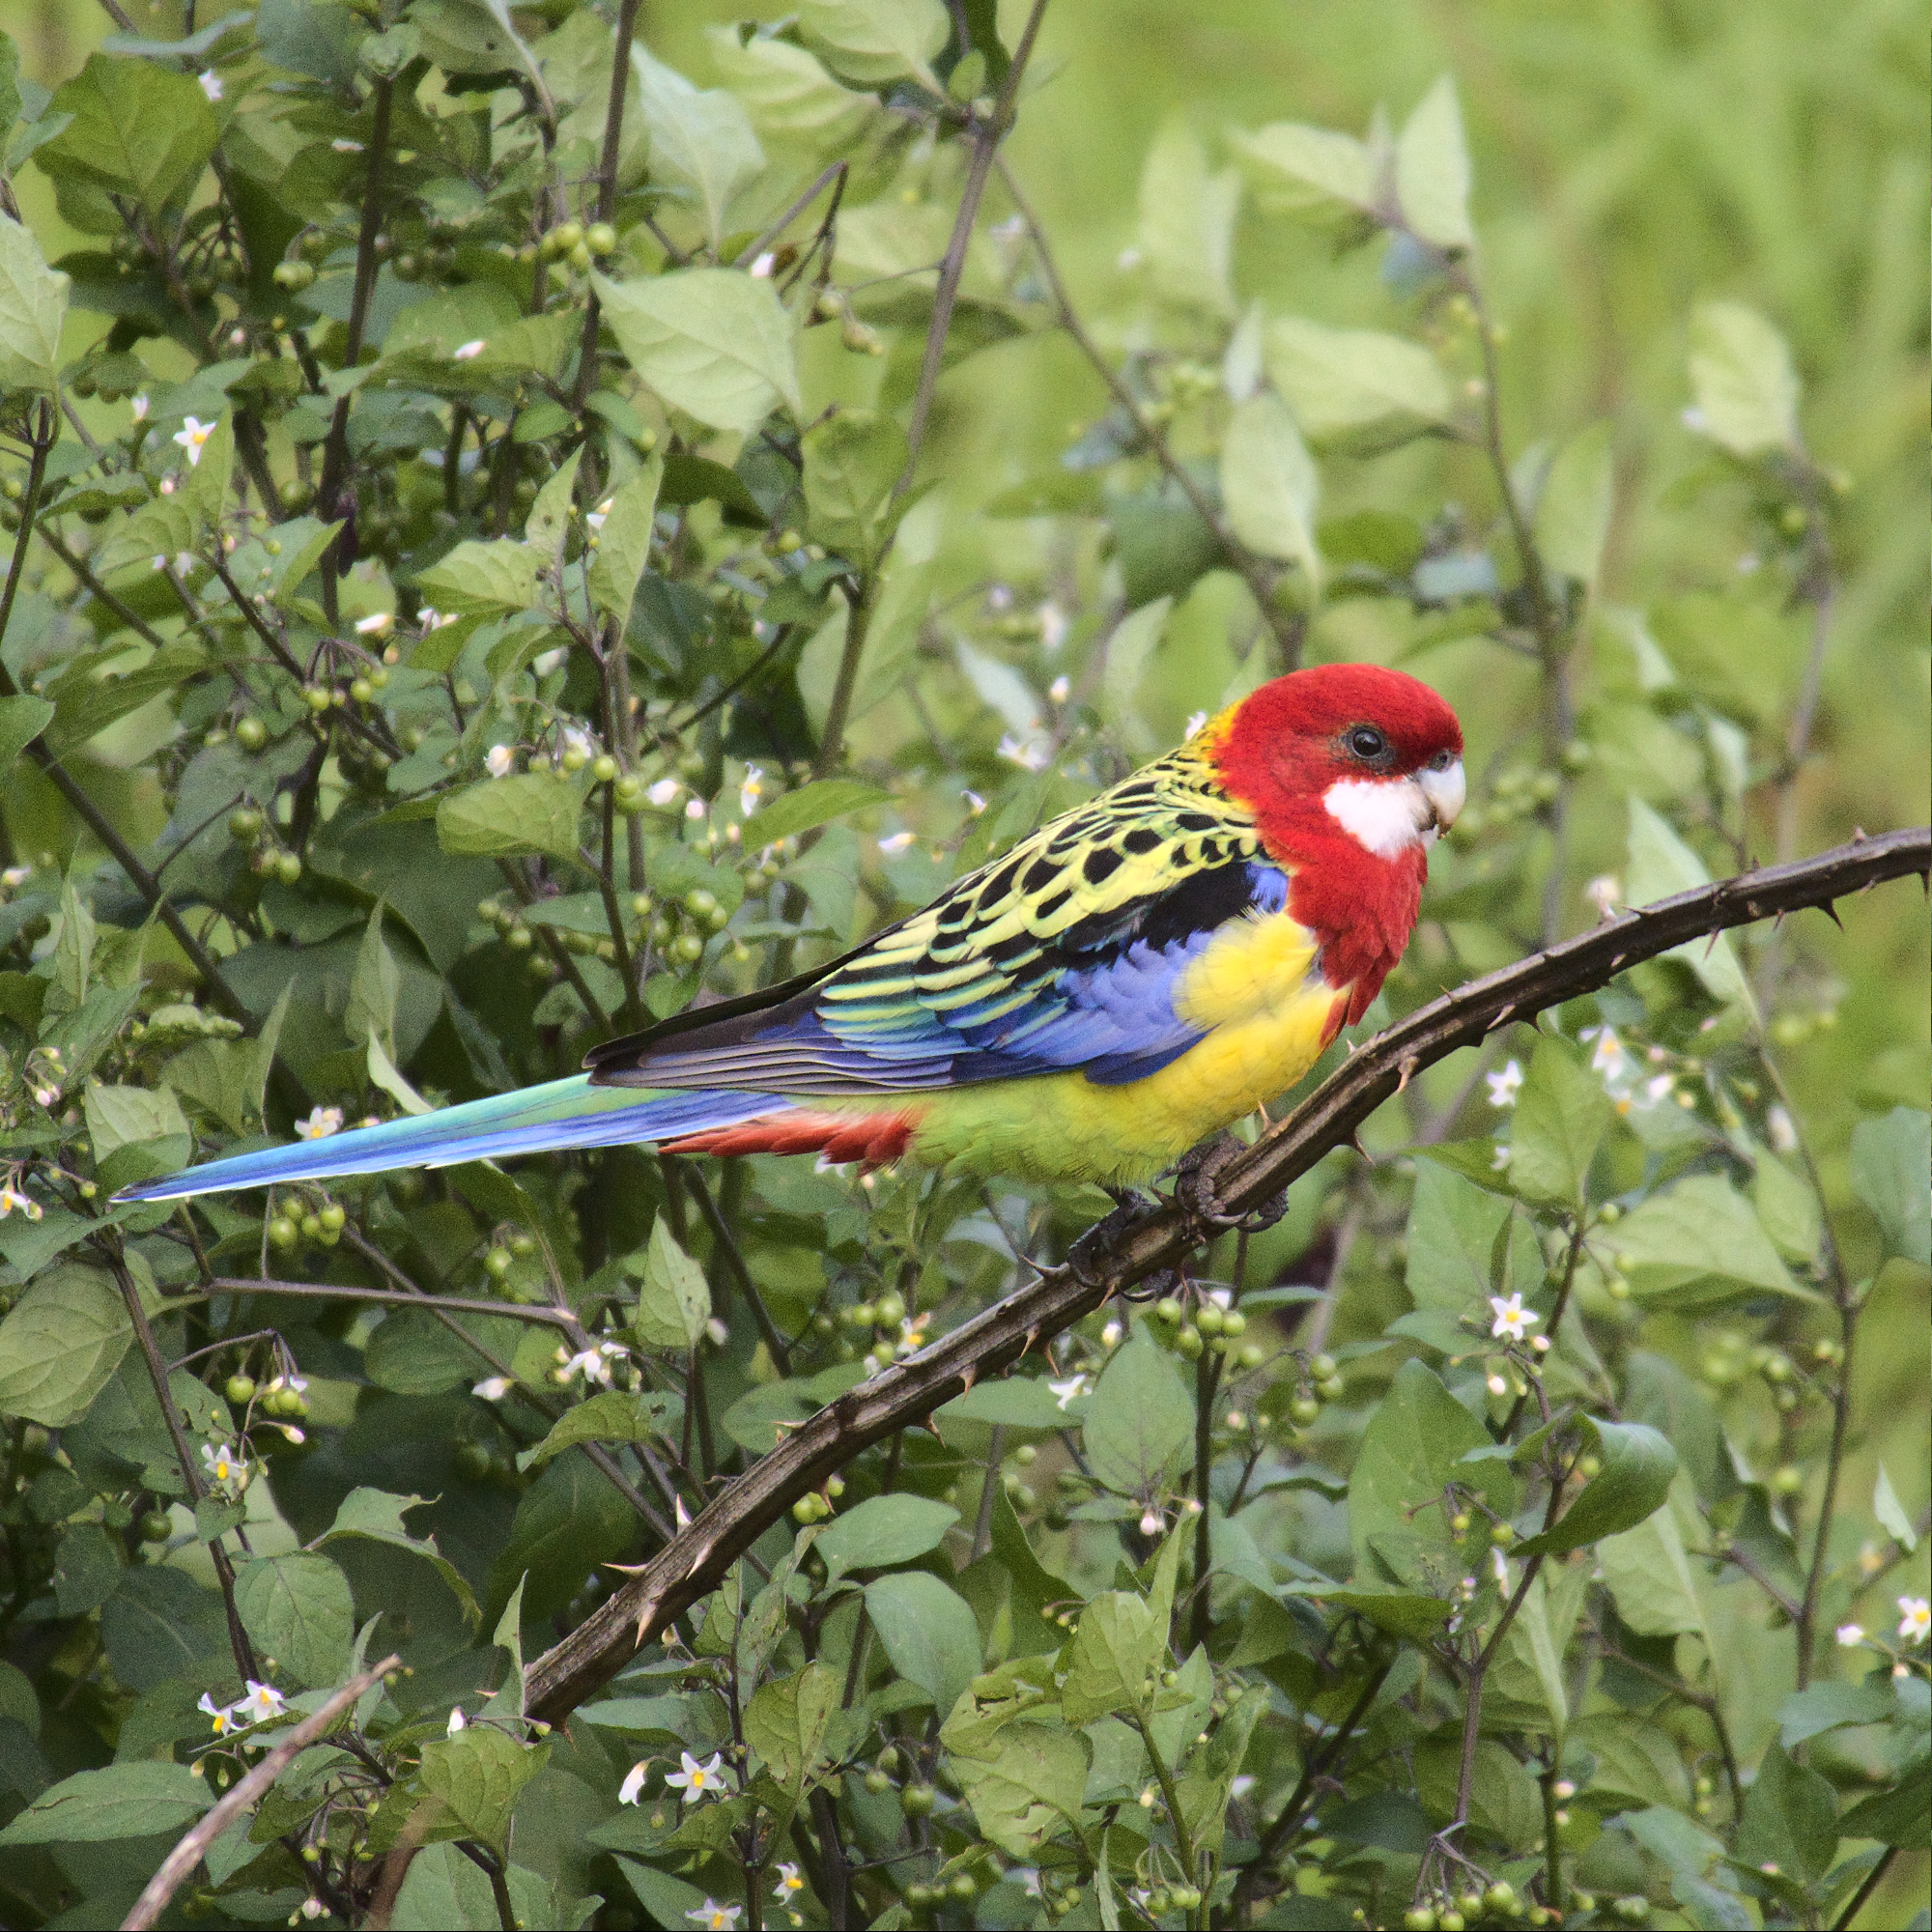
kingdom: Animalia
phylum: Chordata
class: Aves
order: Psittaciformes
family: Psittacidae
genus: Platycercus
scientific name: Platycercus eximius
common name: Eastern rosella
